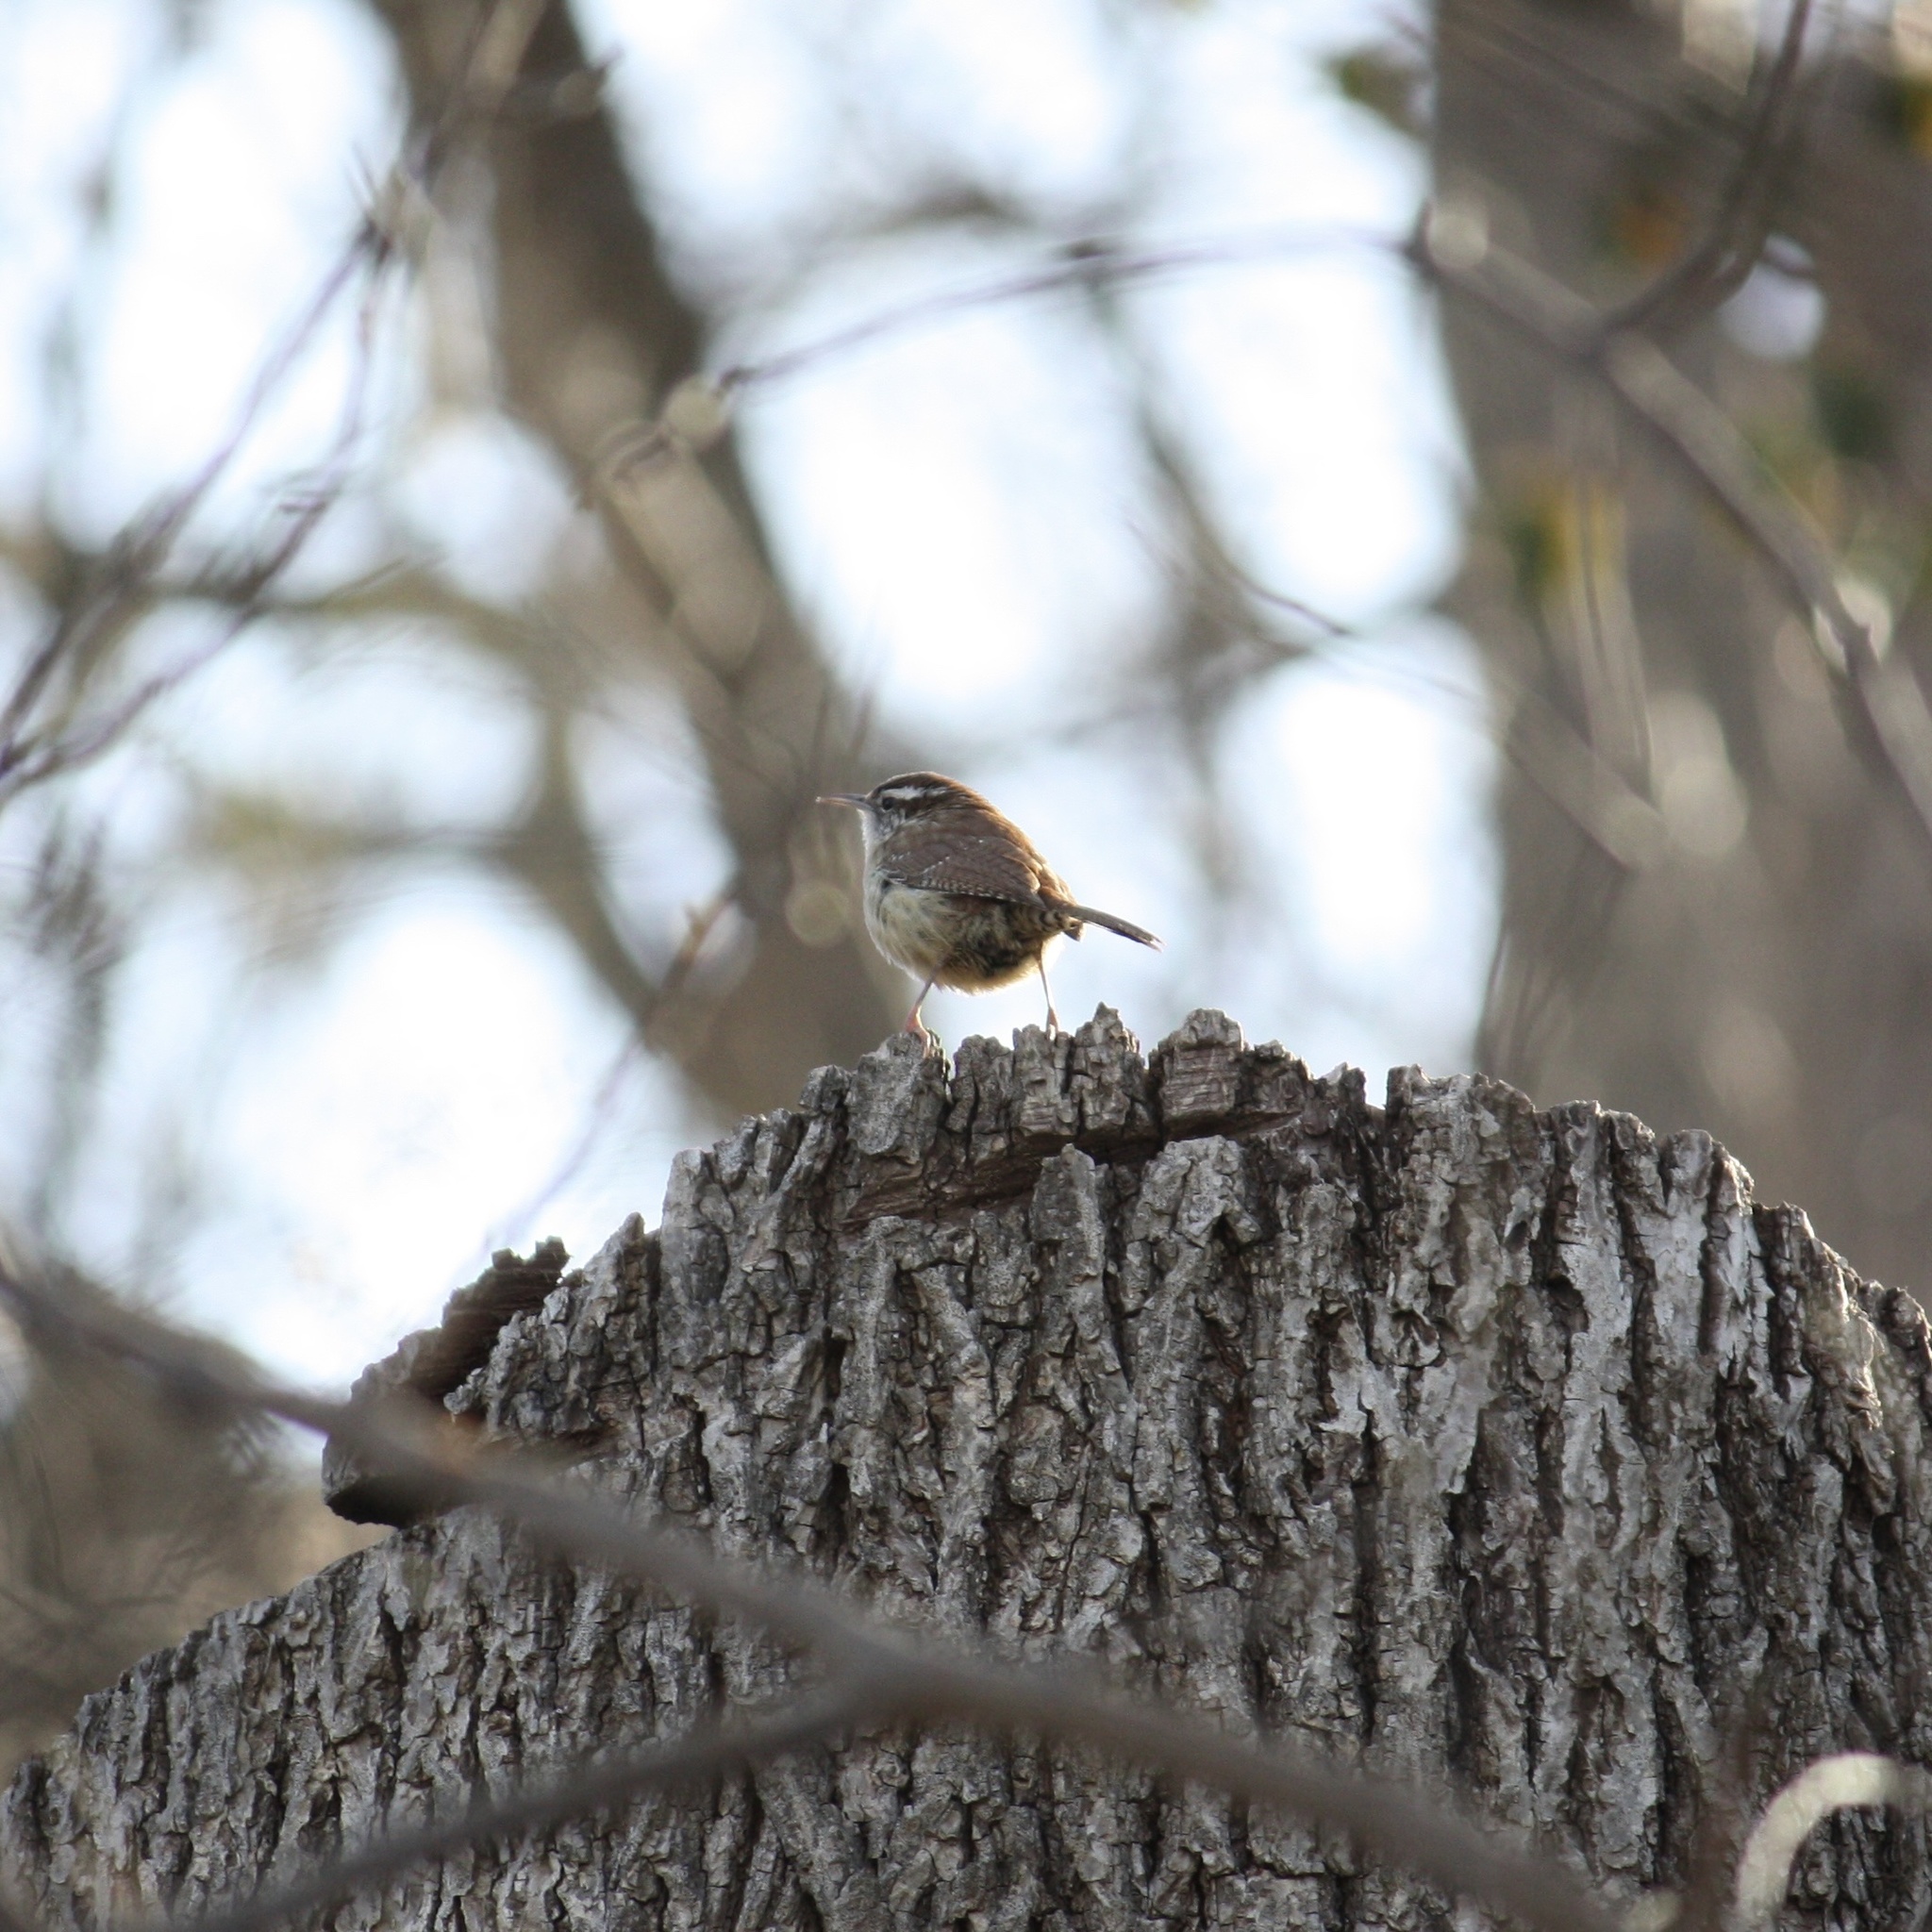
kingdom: Animalia
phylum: Chordata
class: Aves
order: Passeriformes
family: Troglodytidae
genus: Thryothorus
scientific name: Thryothorus ludovicianus
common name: Carolina wren
